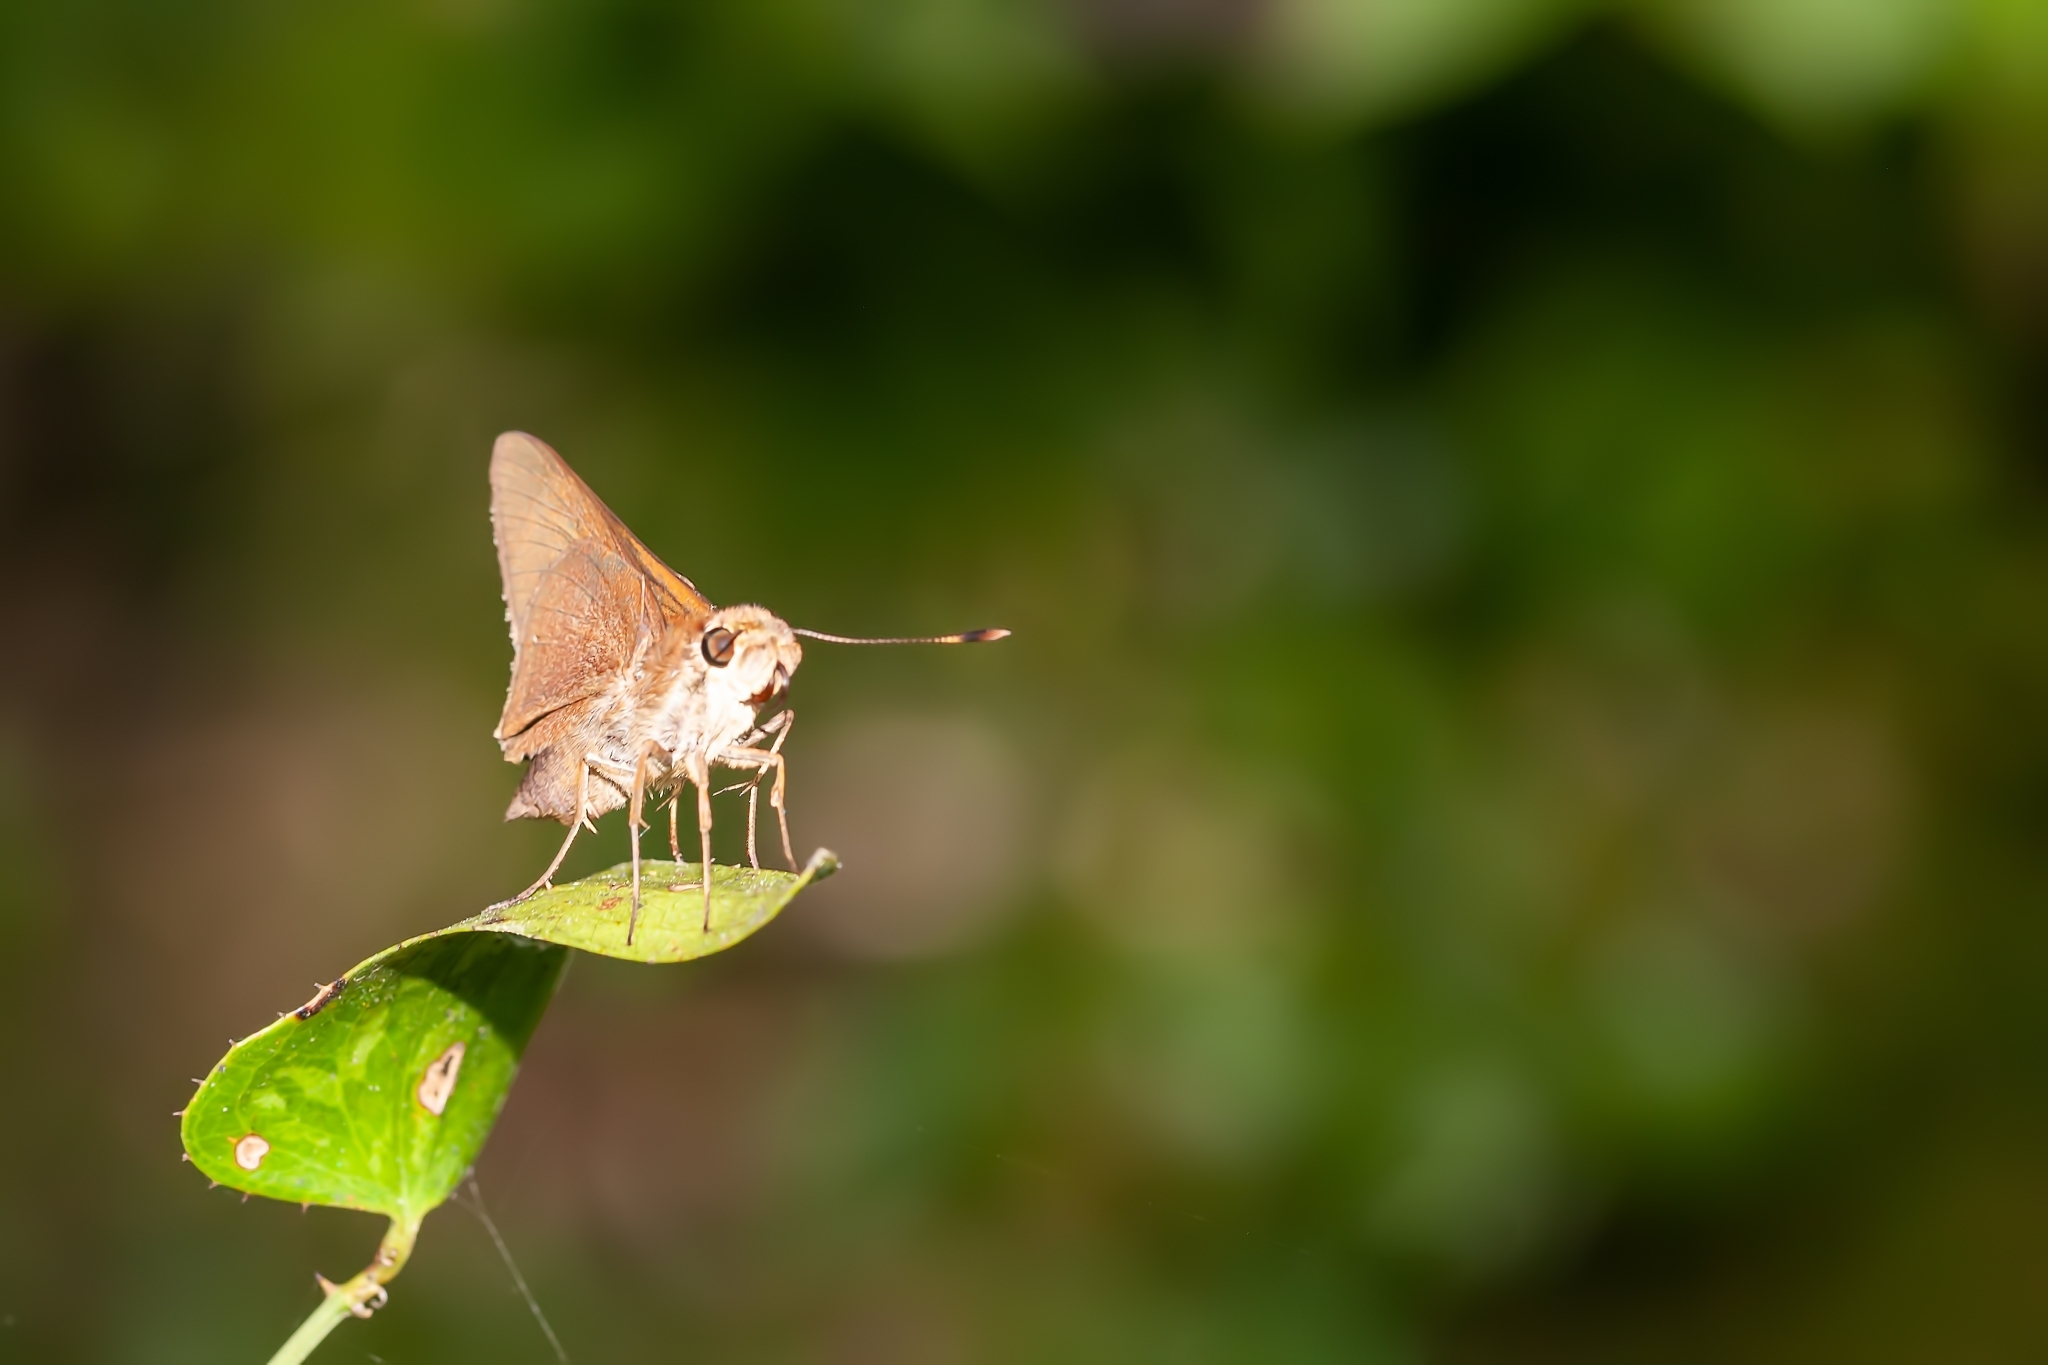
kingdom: Animalia
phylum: Arthropoda
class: Insecta
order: Lepidoptera
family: Hesperiidae
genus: Asbolis
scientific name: Asbolis capucinus
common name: Monk skipper
